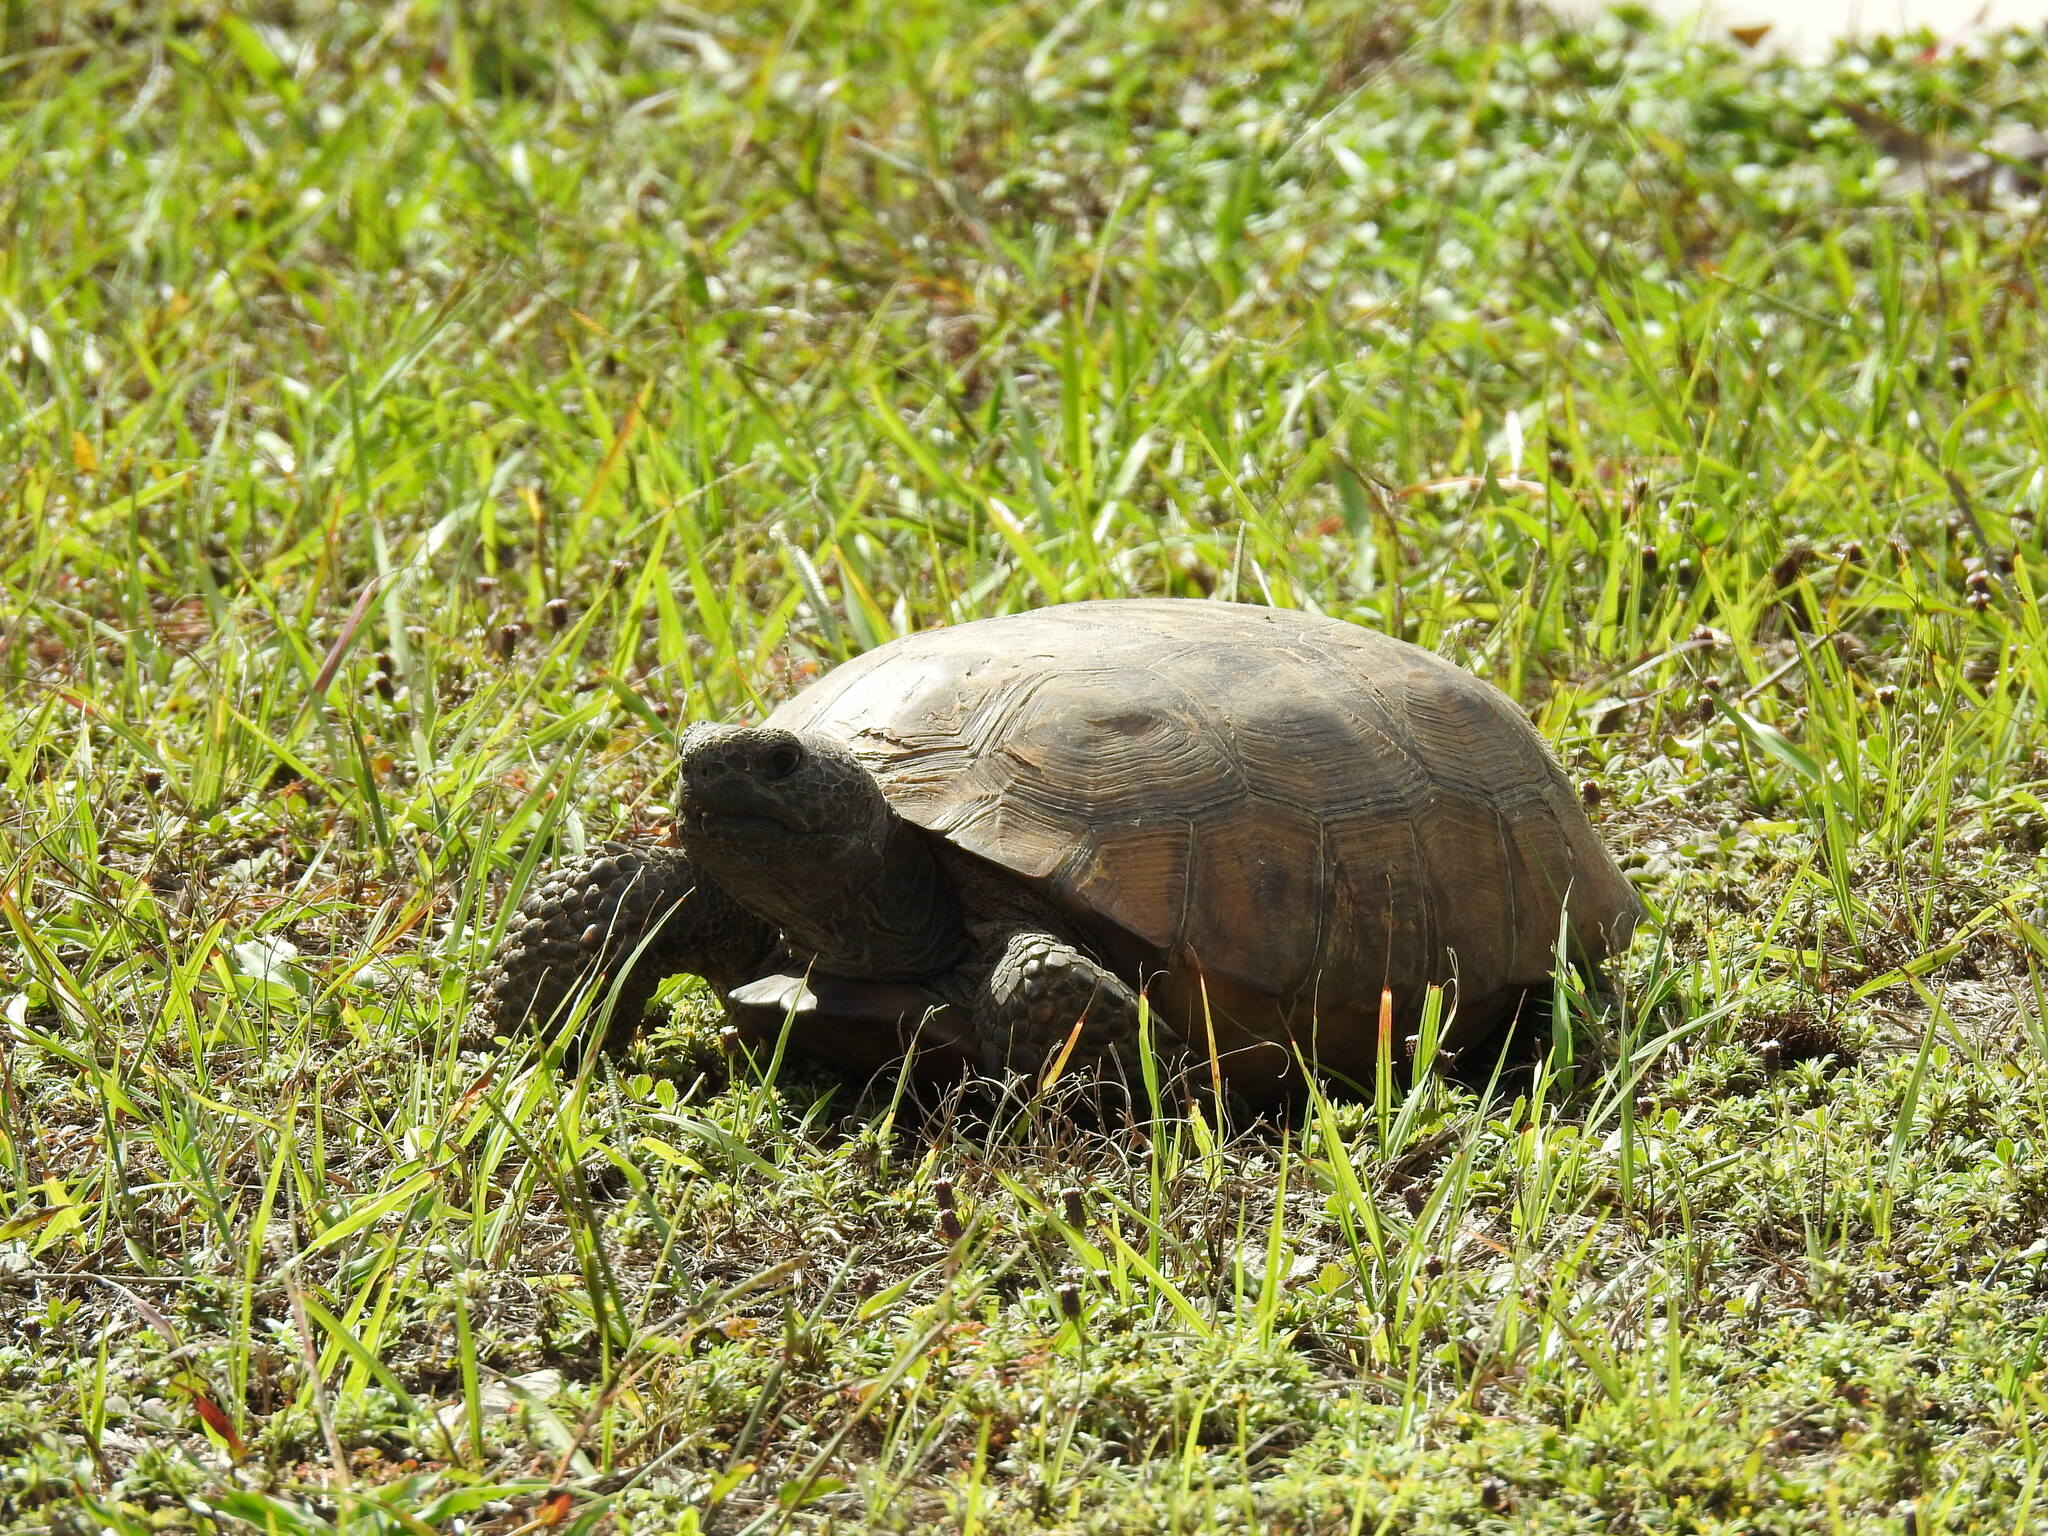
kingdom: Animalia
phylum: Chordata
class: Testudines
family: Testudinidae
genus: Gopherus
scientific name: Gopherus polyphemus
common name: Florida gopher tortoise
